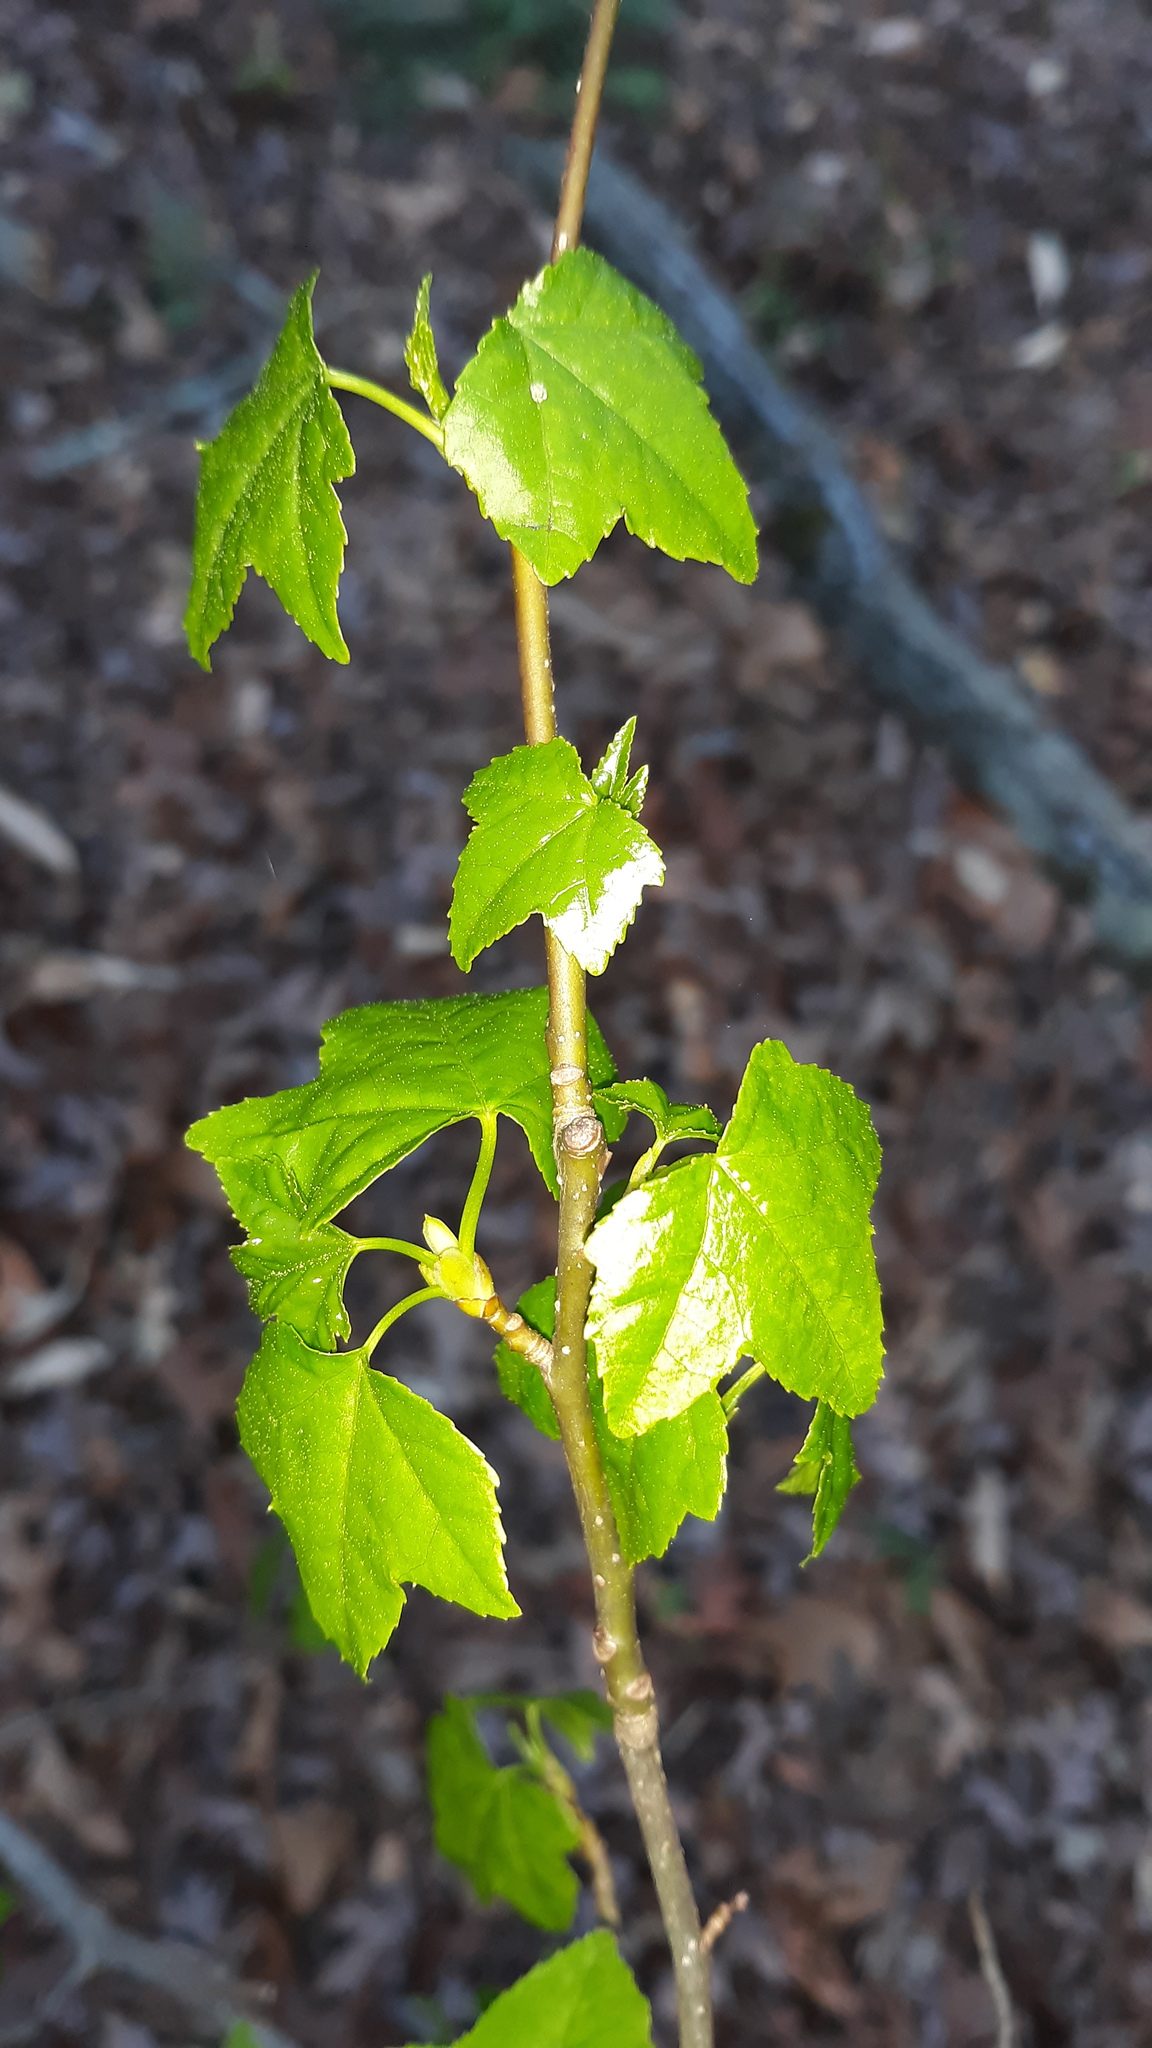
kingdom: Plantae
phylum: Tracheophyta
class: Magnoliopsida
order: Saxifragales
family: Altingiaceae
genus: Liquidambar
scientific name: Liquidambar styraciflua
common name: Sweet gum
